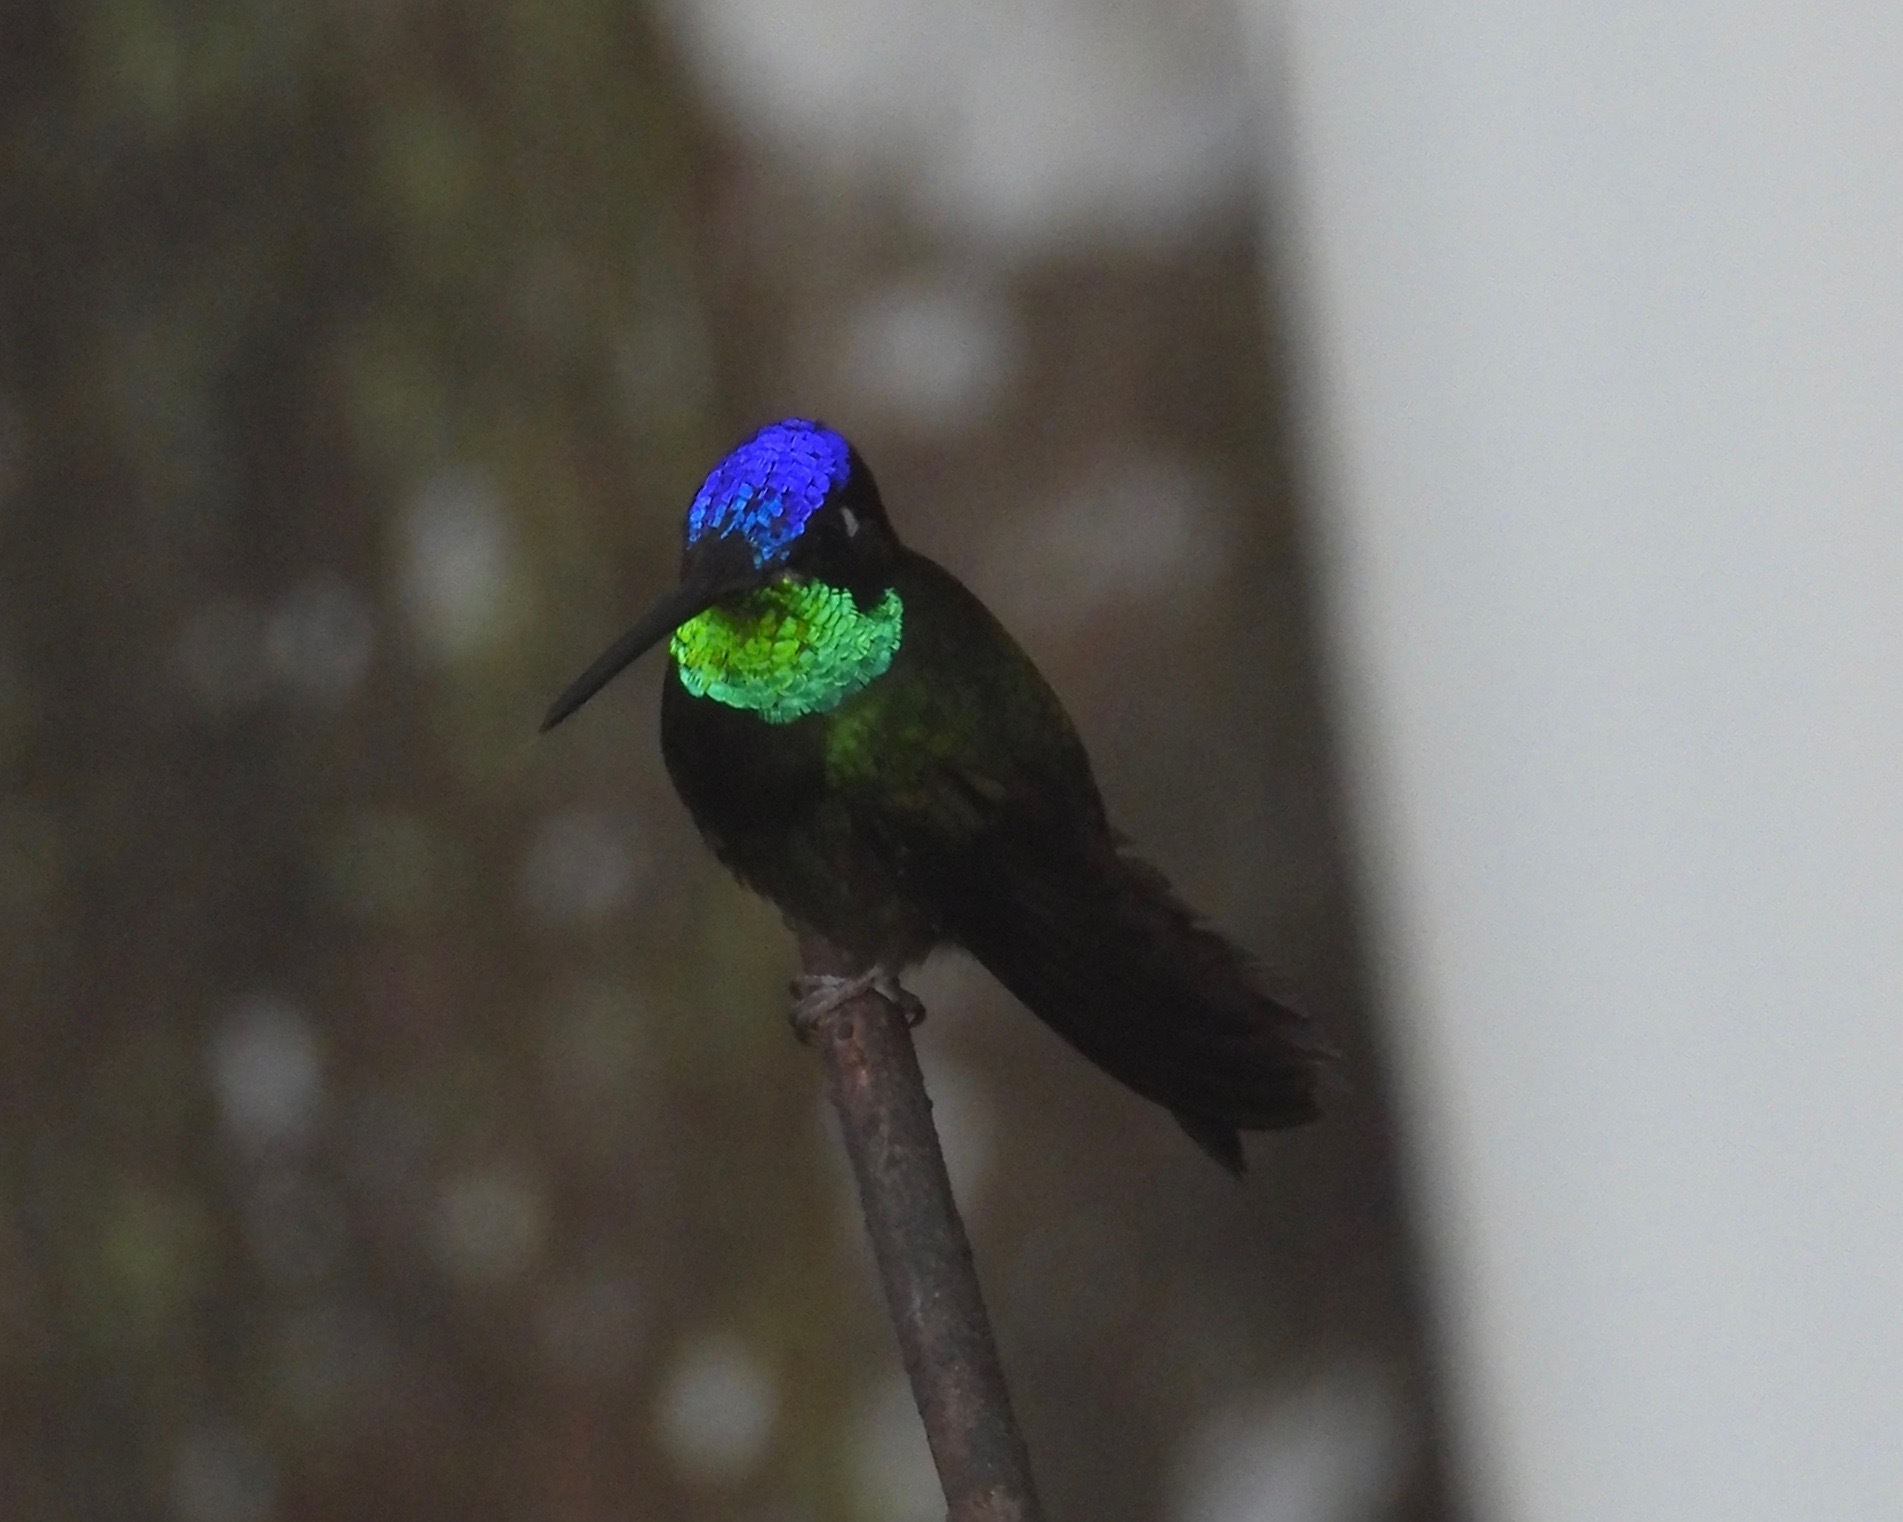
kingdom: Animalia
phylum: Chordata
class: Aves
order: Apodiformes
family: Trochilidae
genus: Eugenes
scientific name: Eugenes fulgens
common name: Magnificent hummingbird
